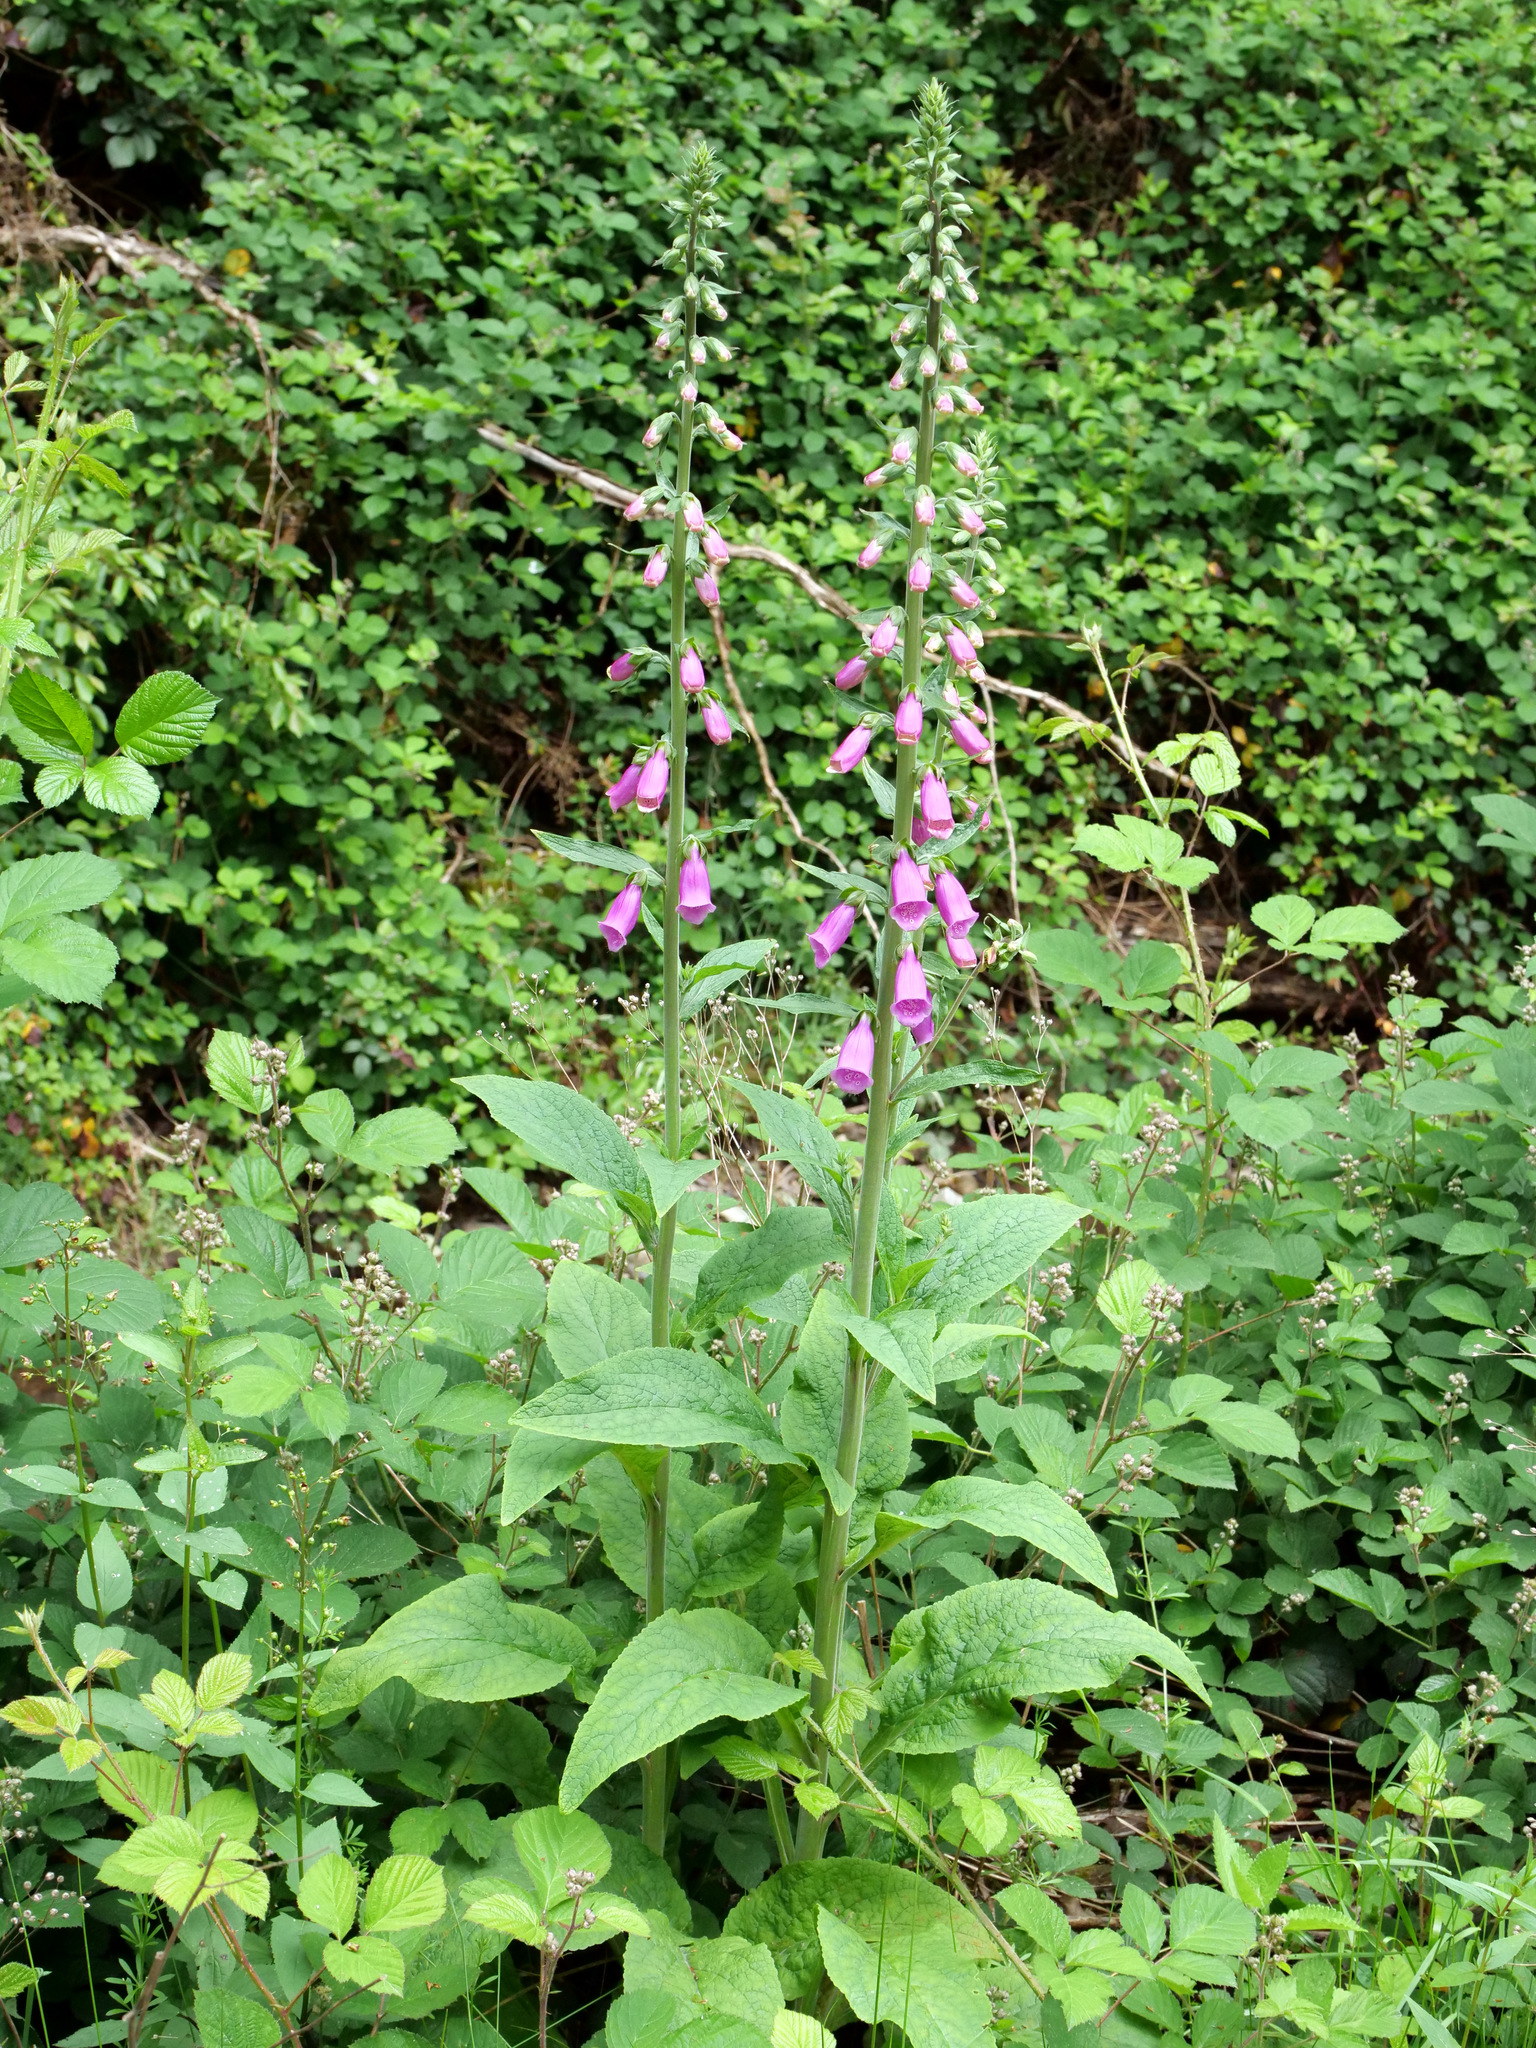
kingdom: Plantae
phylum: Tracheophyta
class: Magnoliopsida
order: Lamiales
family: Plantaginaceae
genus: Digitalis
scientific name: Digitalis purpurea
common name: Foxglove
